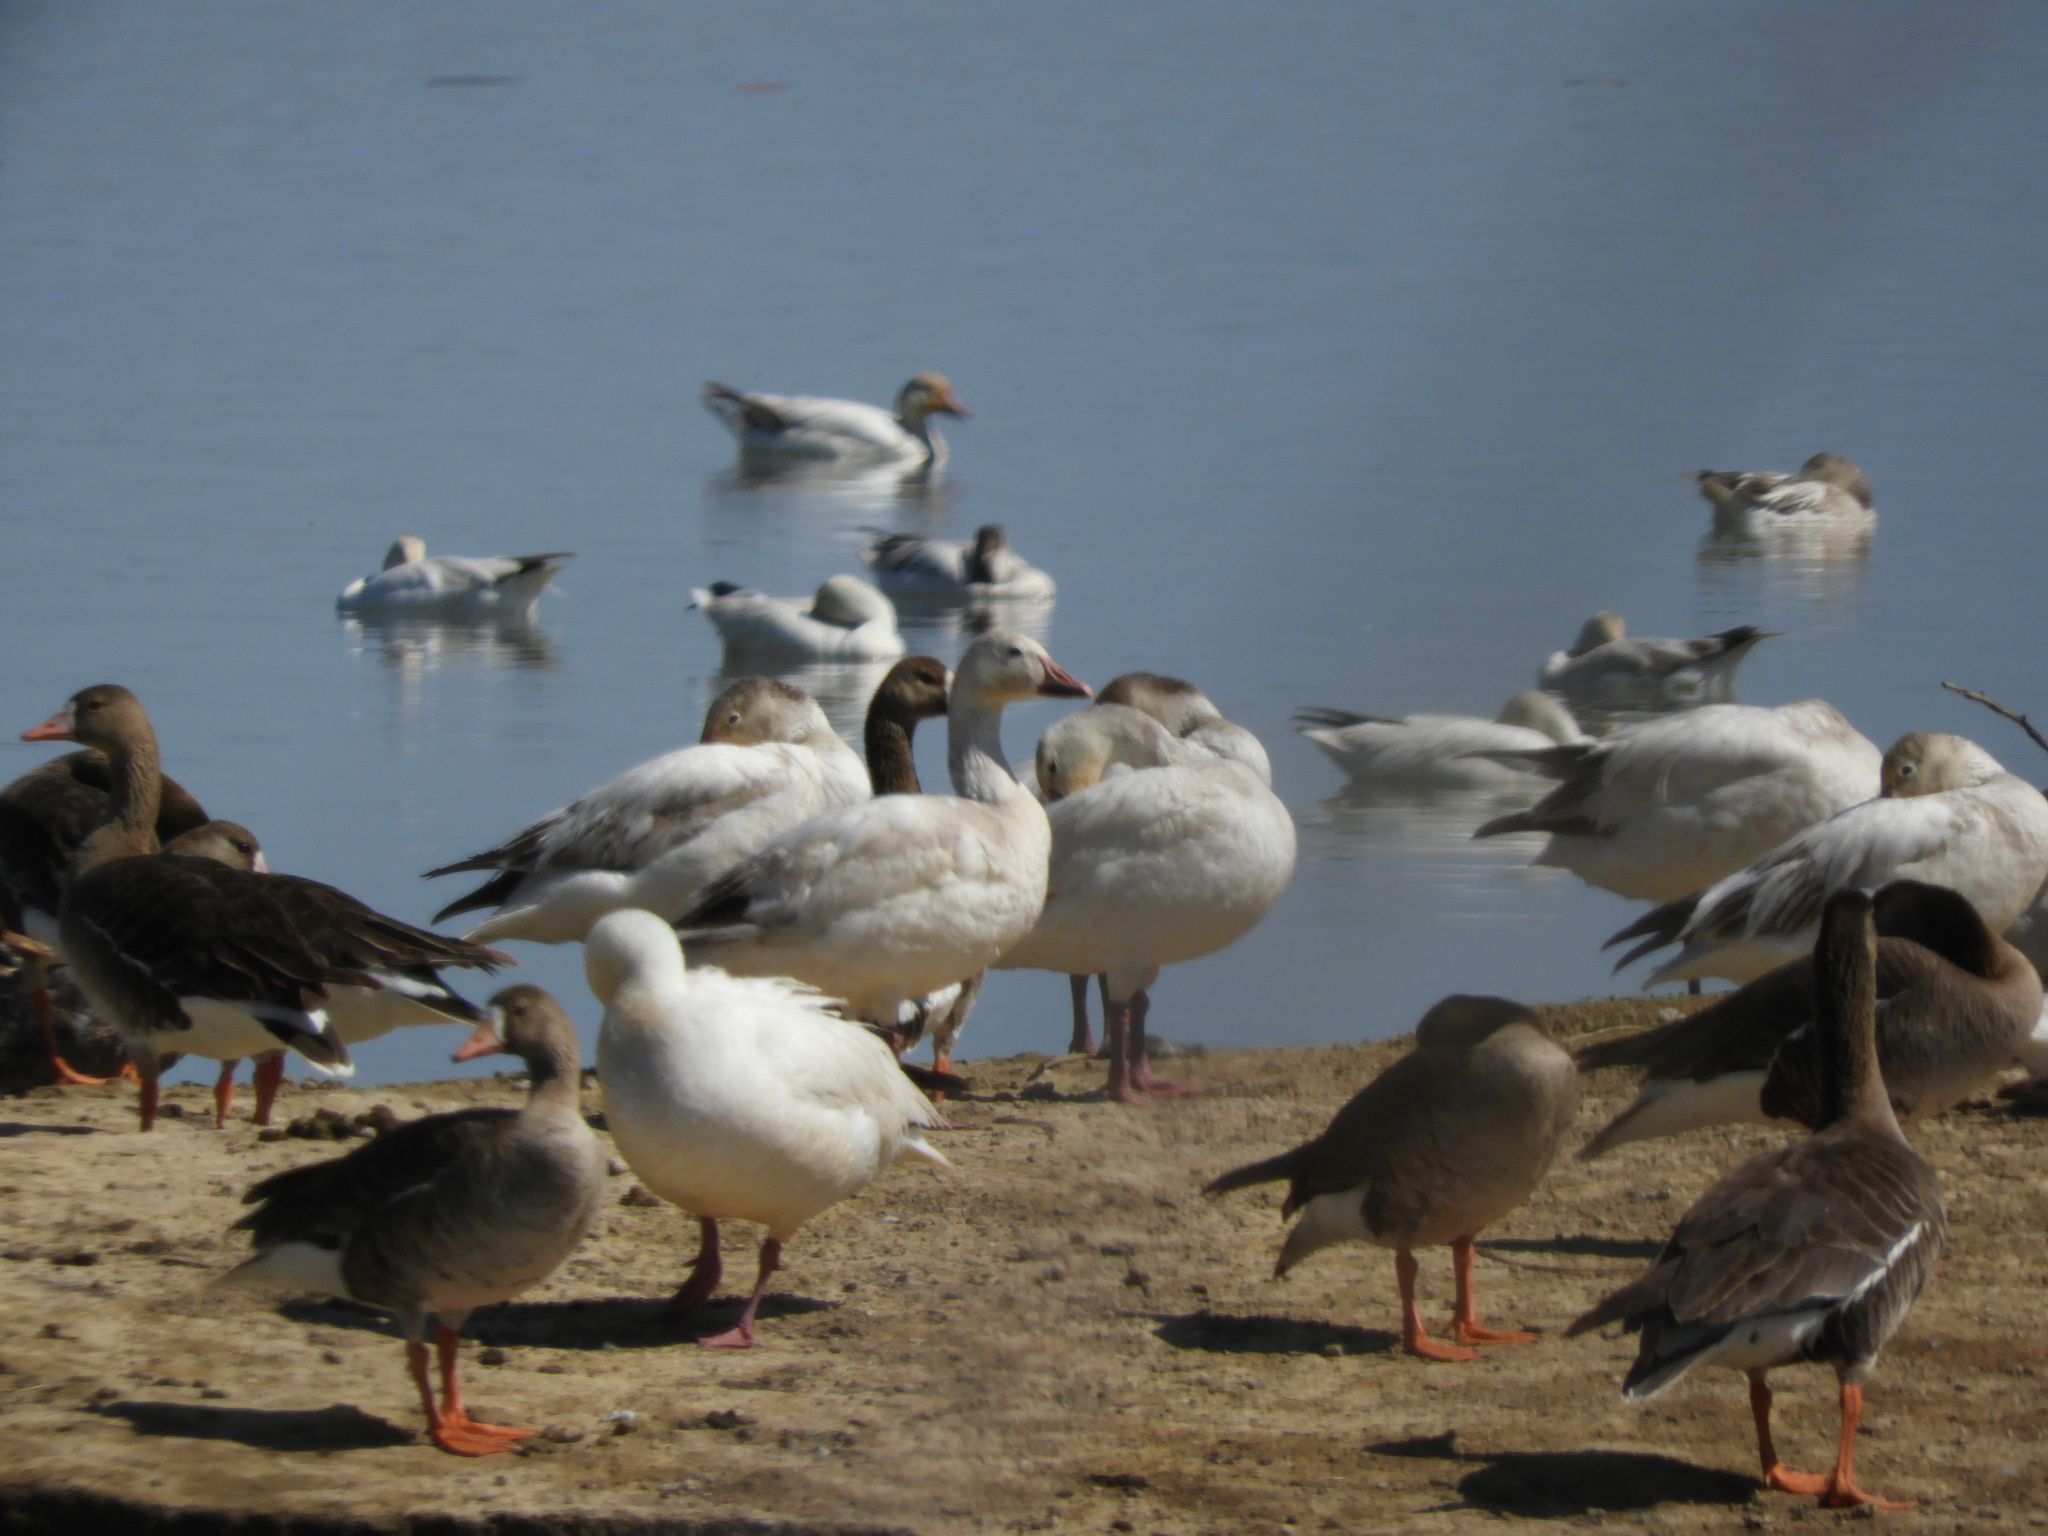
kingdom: Animalia
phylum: Chordata
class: Aves
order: Anseriformes
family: Anatidae
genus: Anser
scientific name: Anser caerulescens
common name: Snow goose
